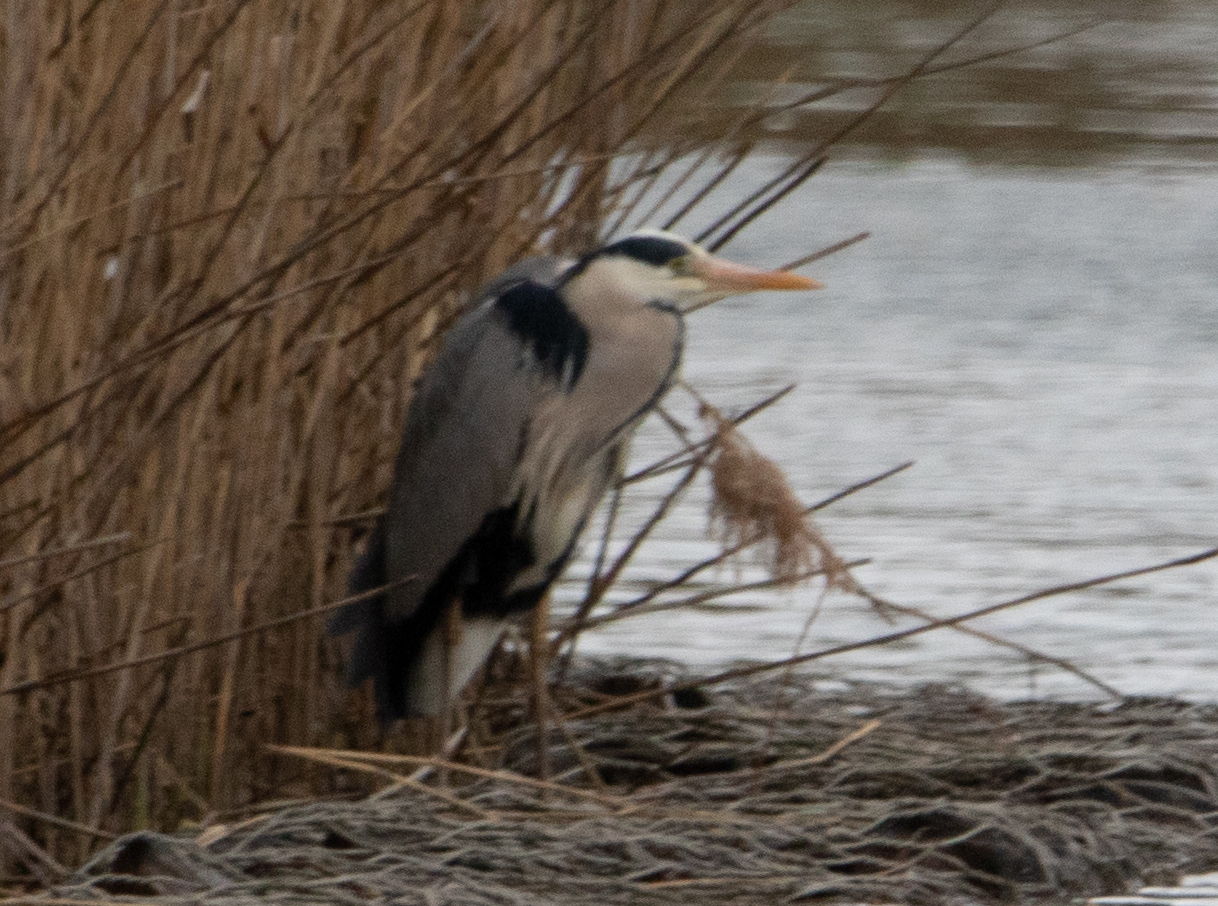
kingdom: Animalia
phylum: Chordata
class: Aves
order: Pelecaniformes
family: Ardeidae
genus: Ardea
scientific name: Ardea cinerea
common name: Grey heron
